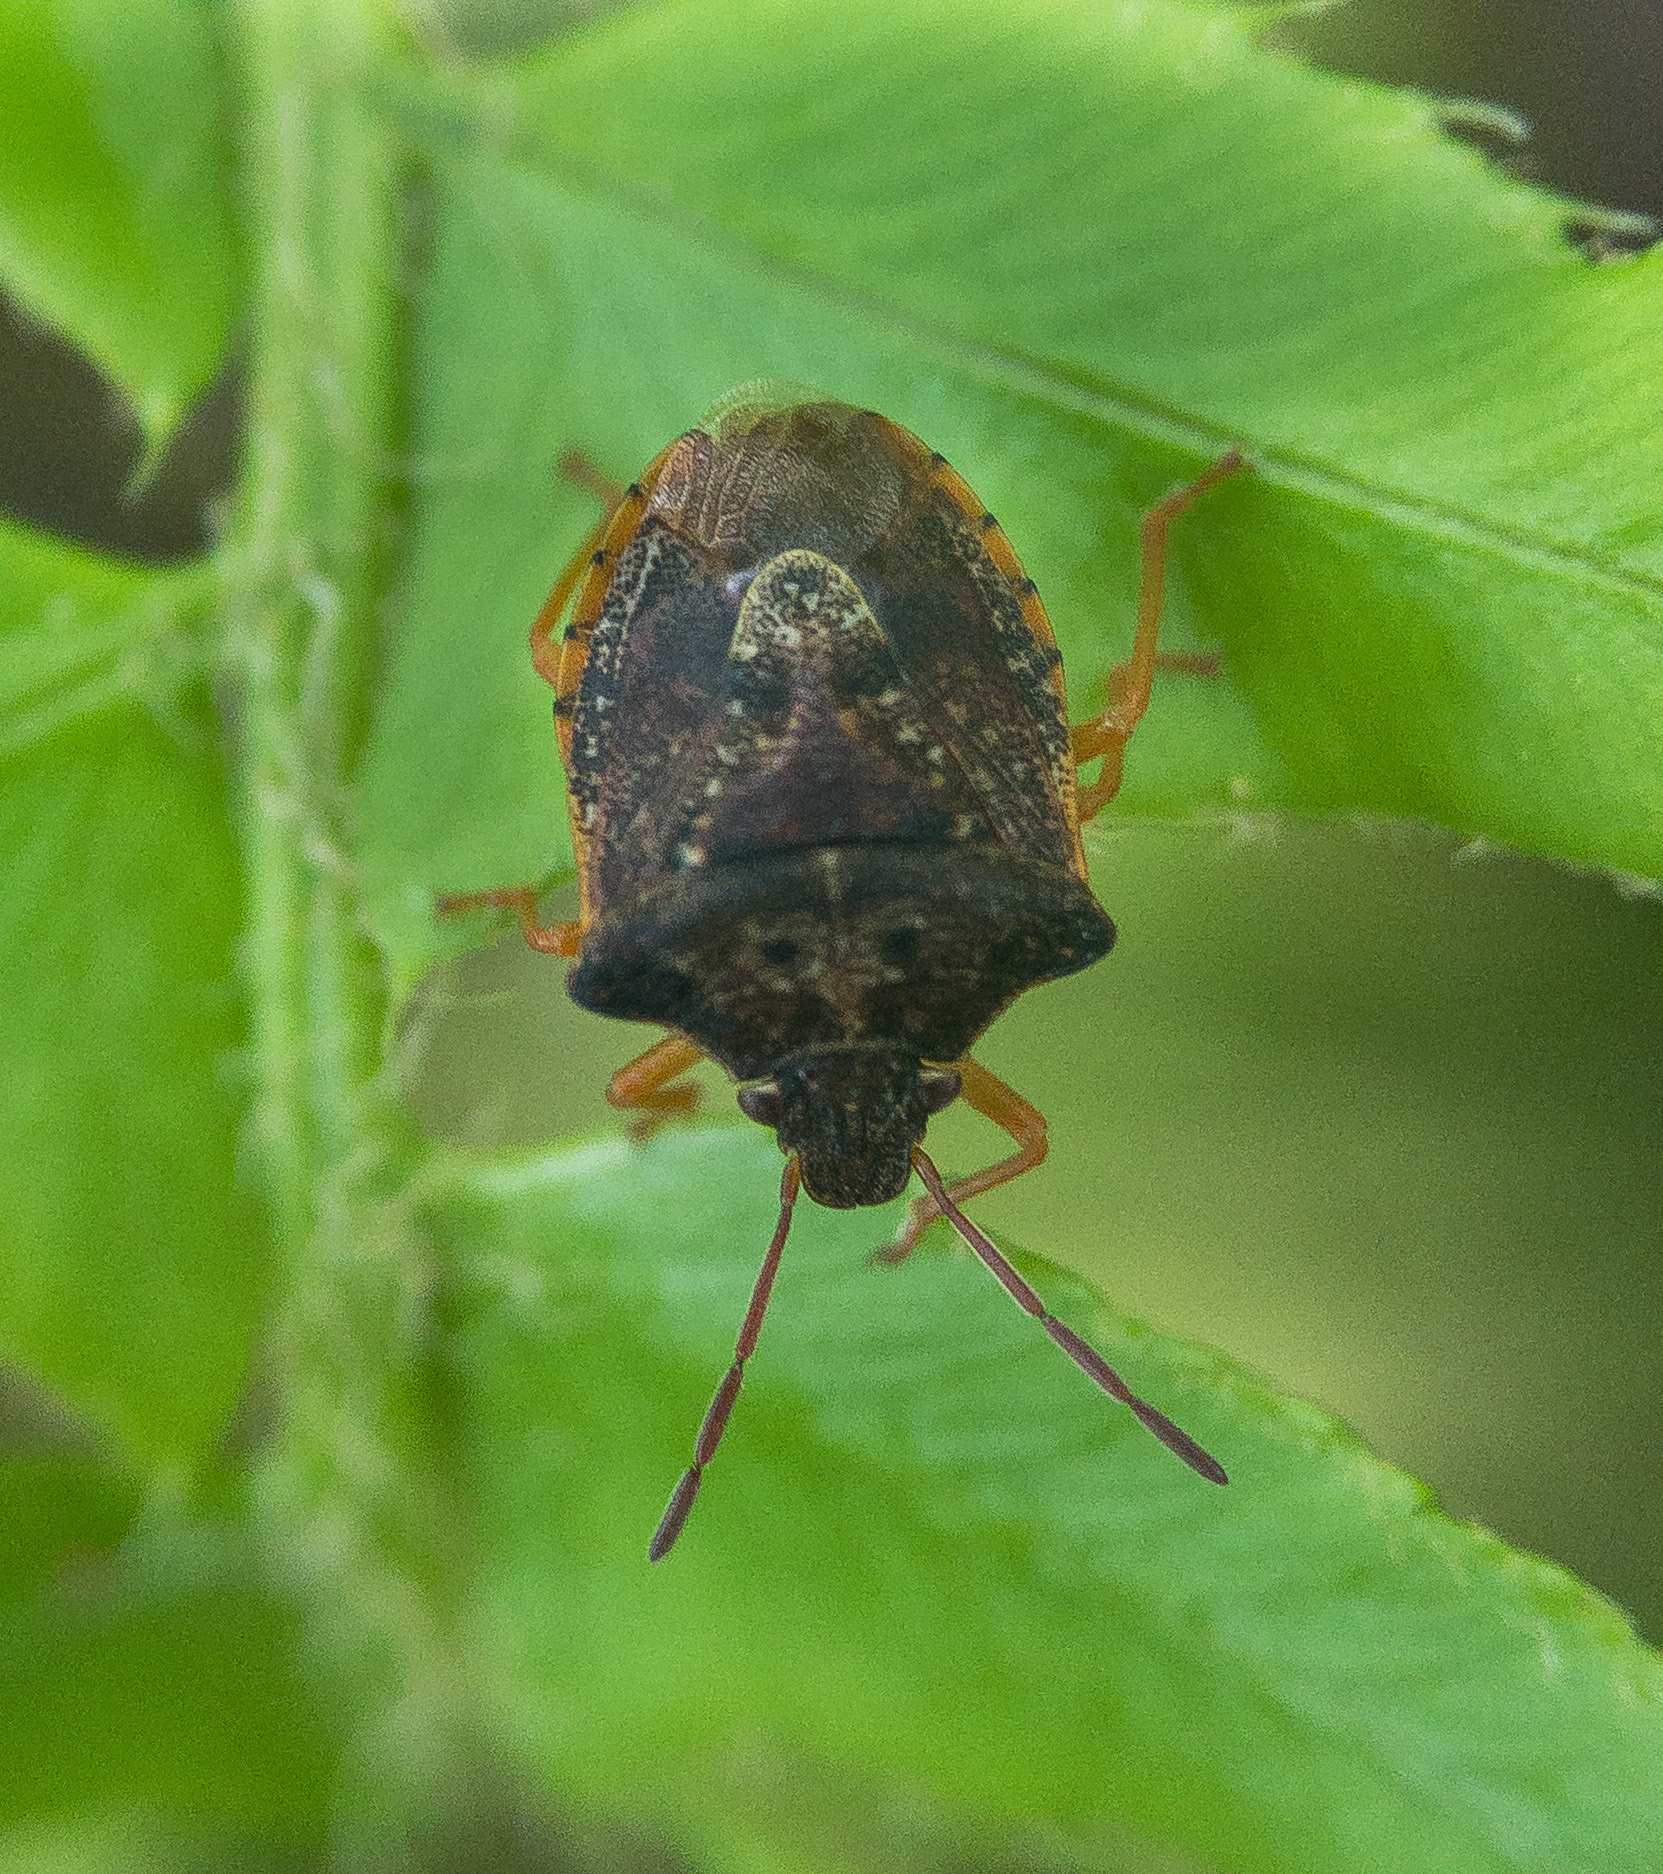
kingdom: Animalia
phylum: Arthropoda
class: Insecta
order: Hemiptera
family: Pentatomidae
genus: Dendrocoris
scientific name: Dendrocoris humeralis
